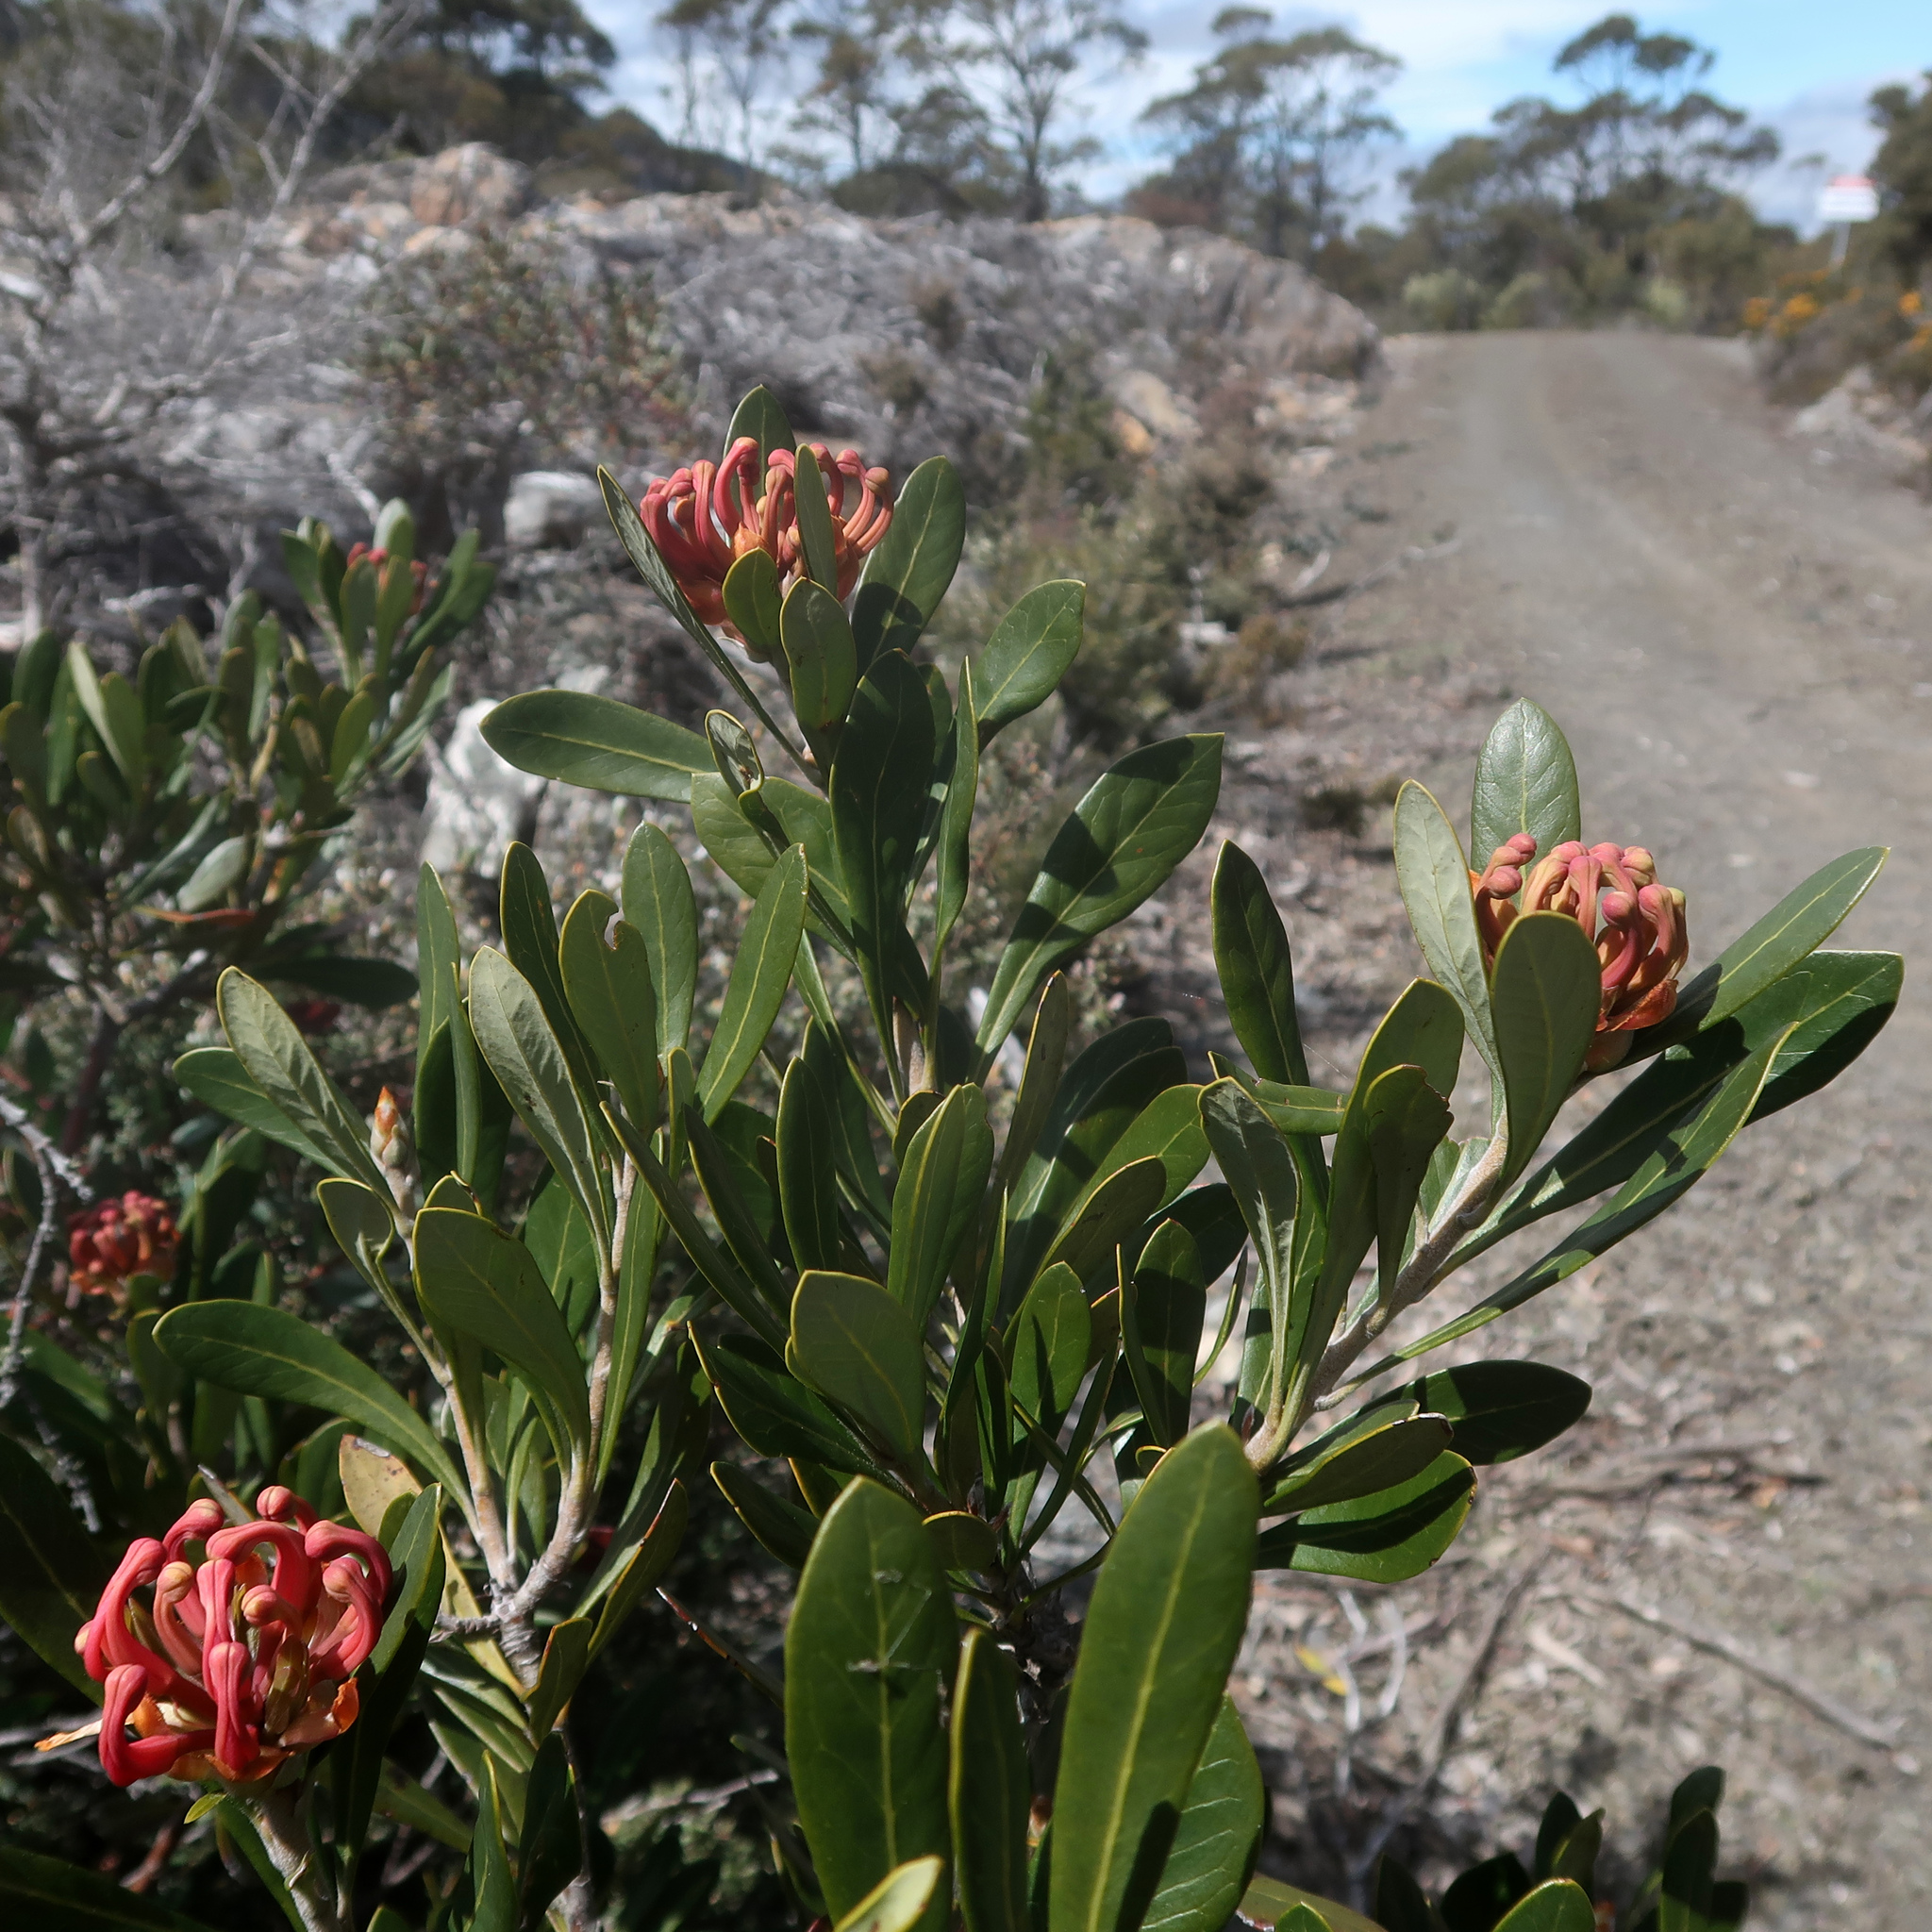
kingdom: Plantae
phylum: Tracheophyta
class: Magnoliopsida
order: Proteales
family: Proteaceae
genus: Telopea
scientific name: Telopea truncata
